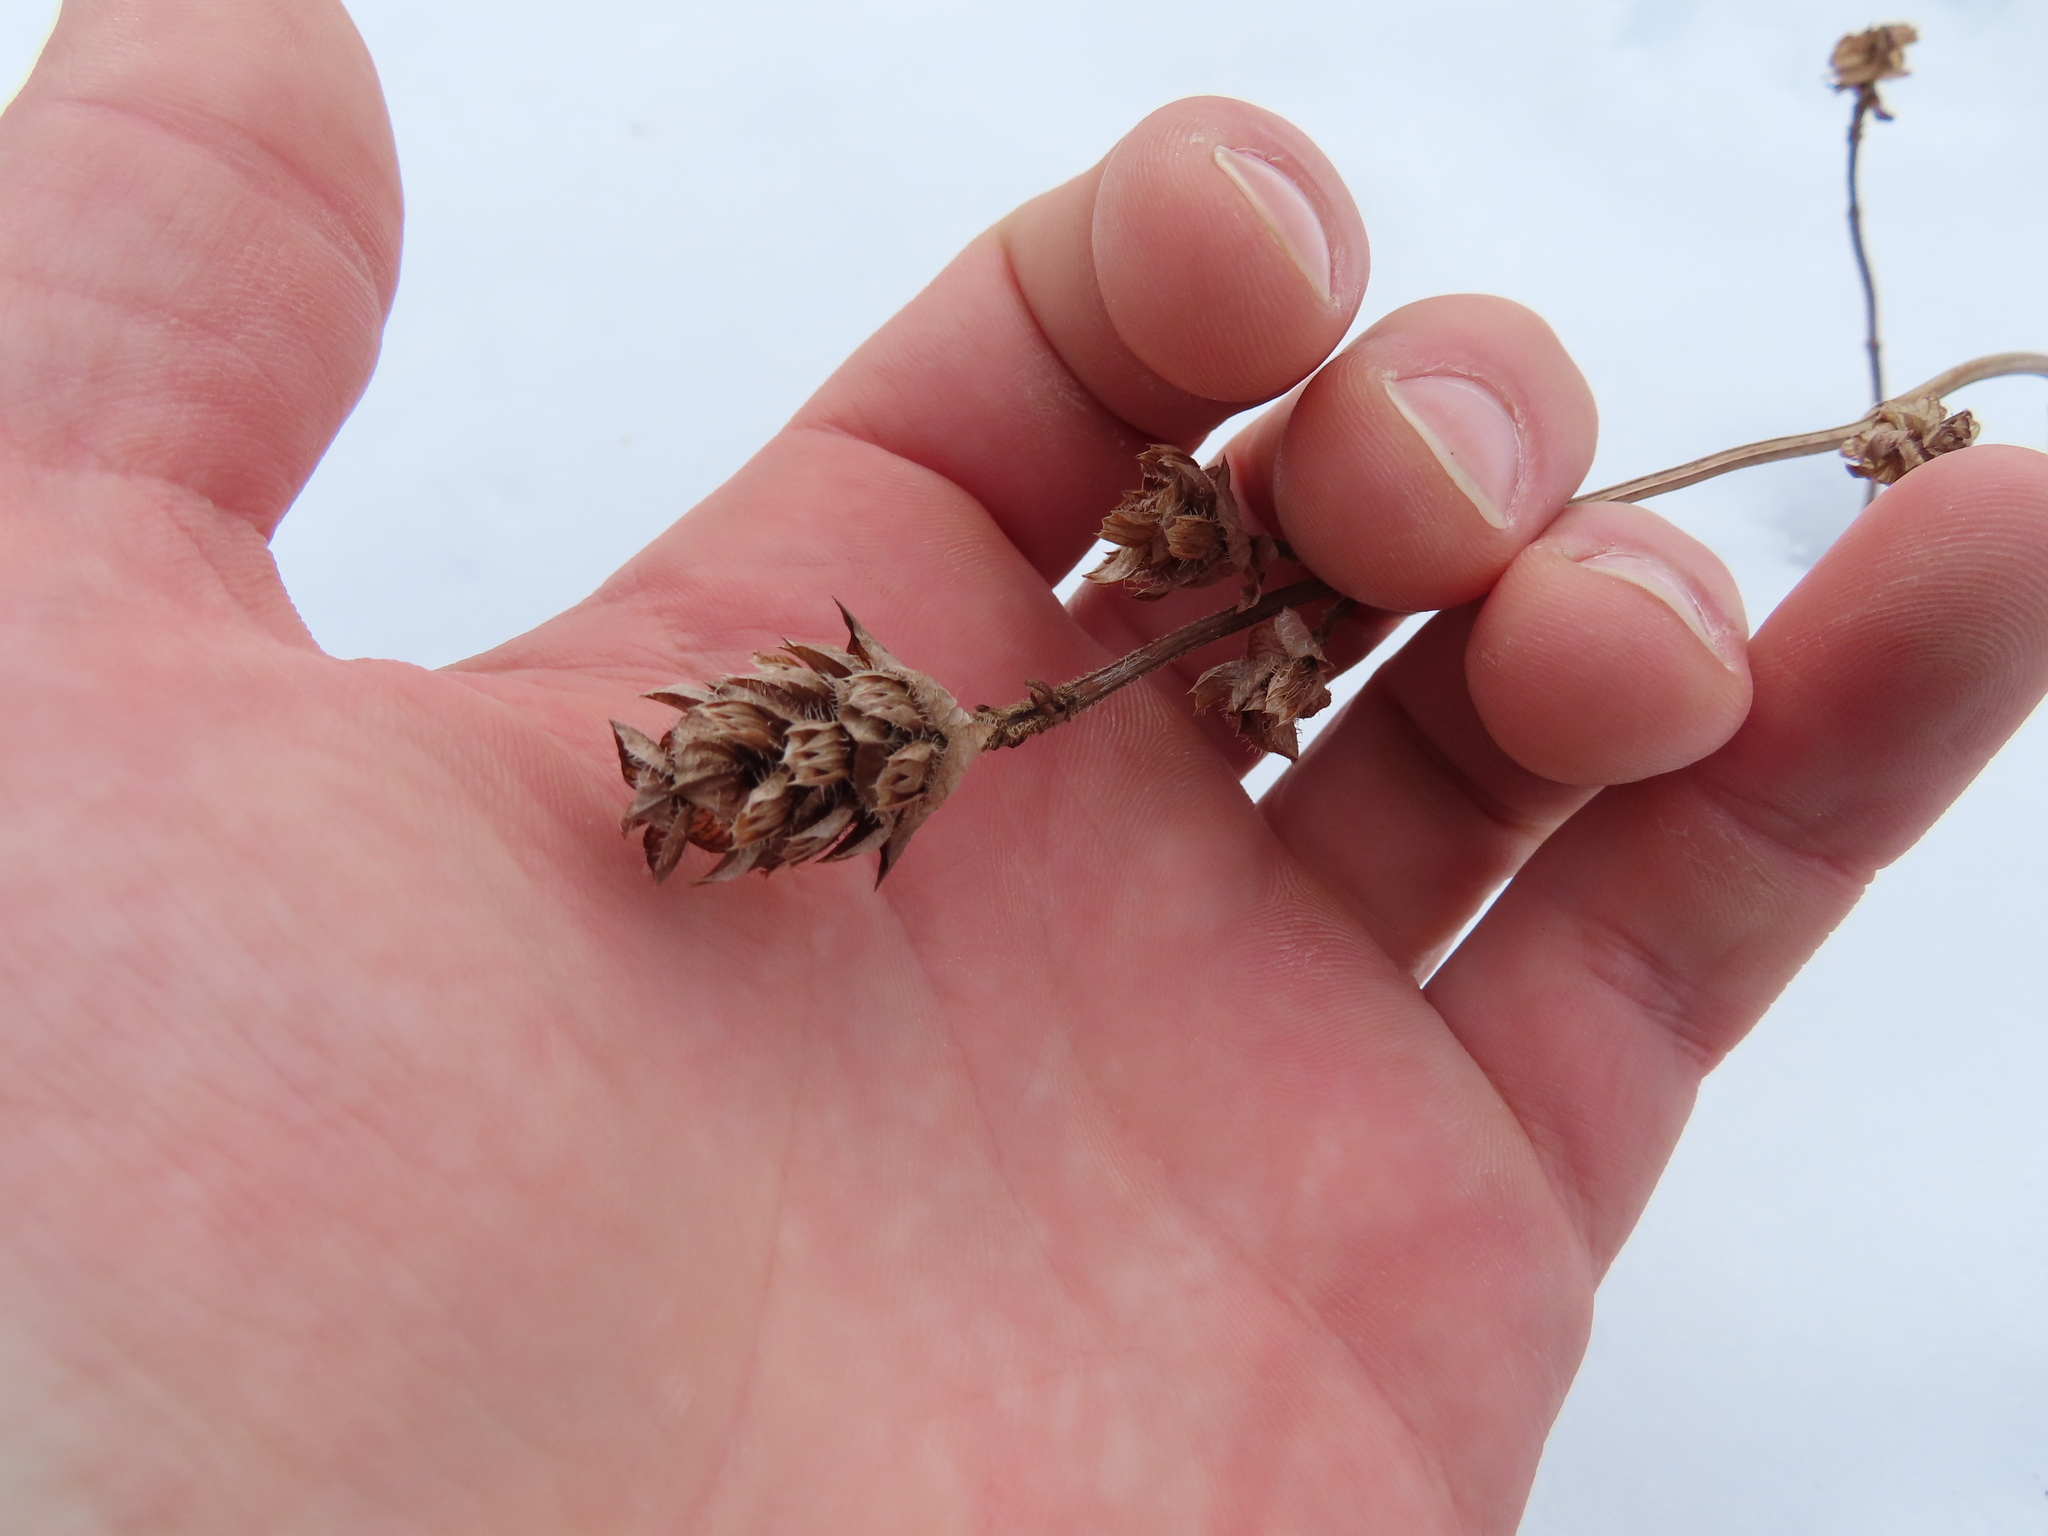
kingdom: Plantae
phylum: Tracheophyta
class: Magnoliopsida
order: Lamiales
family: Lamiaceae
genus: Prunella
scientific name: Prunella vulgaris
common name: Heal-all
